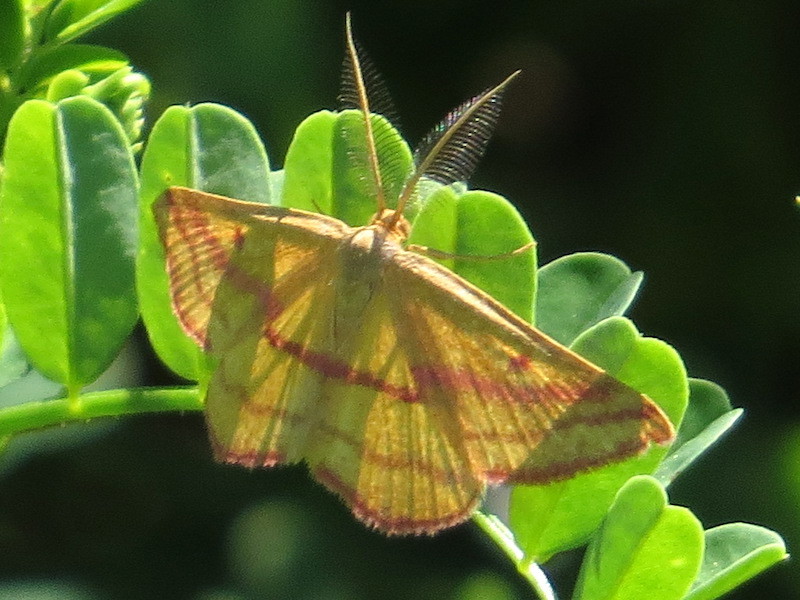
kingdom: Animalia
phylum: Arthropoda
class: Insecta
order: Lepidoptera
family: Geometridae
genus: Haematopis
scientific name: Haematopis grataria
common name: Chickweed geometer
